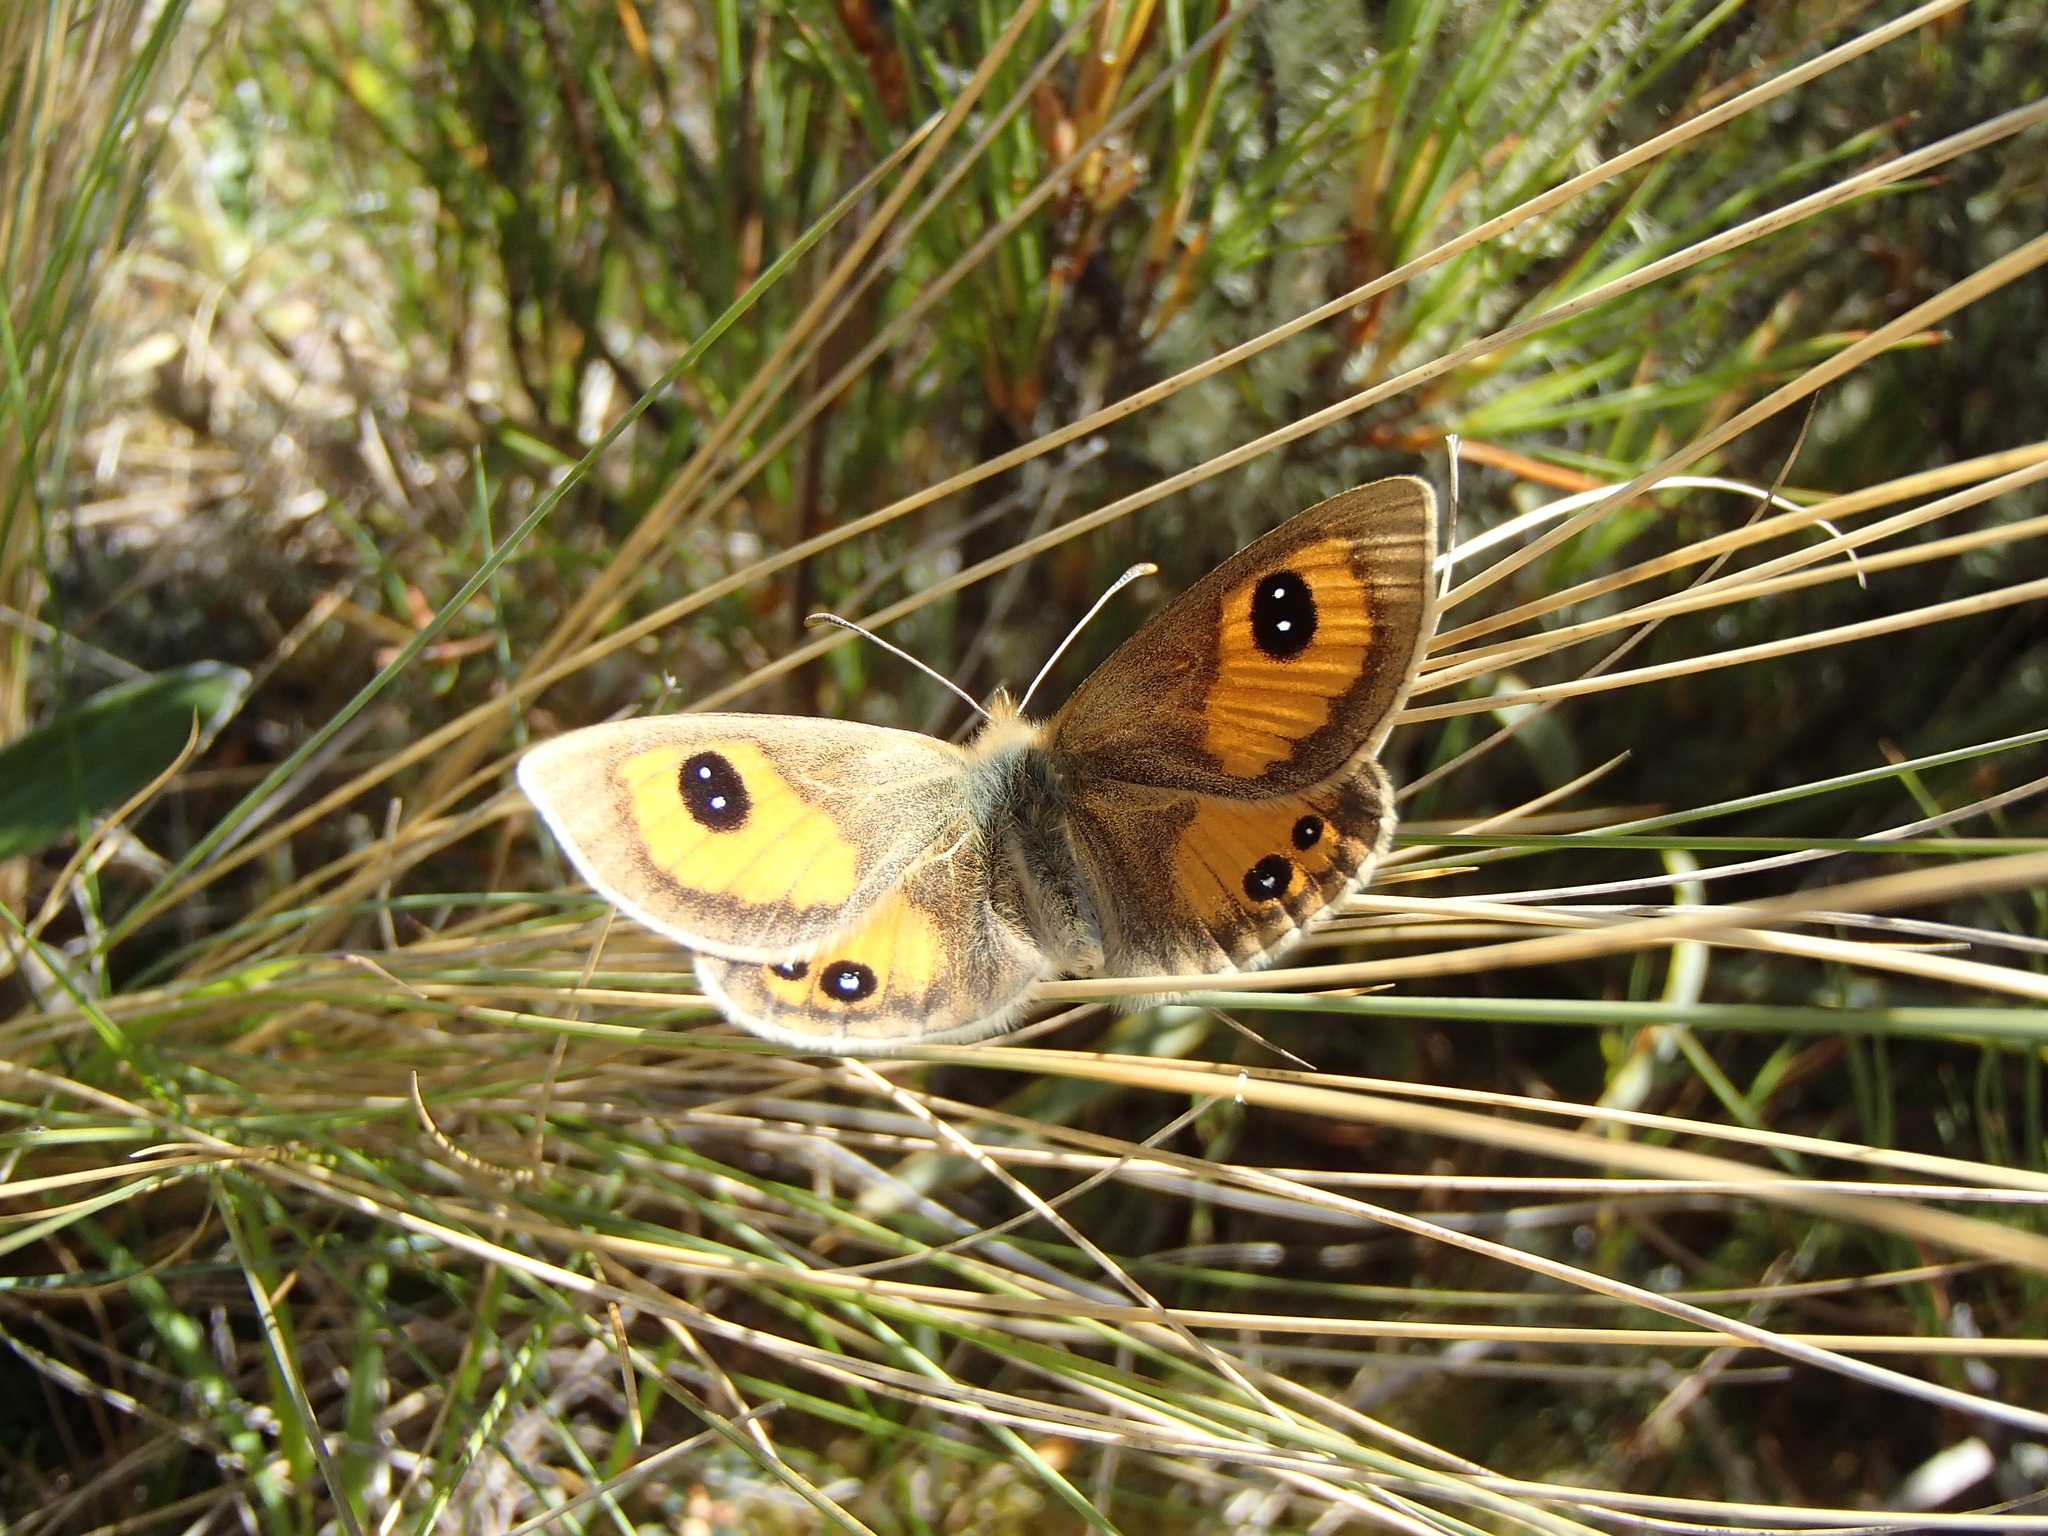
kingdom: Animalia
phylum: Arthropoda
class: Insecta
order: Lepidoptera
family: Nymphalidae
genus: Argyrophenga
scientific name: Argyrophenga antipodum
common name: Common tussock butterfly
